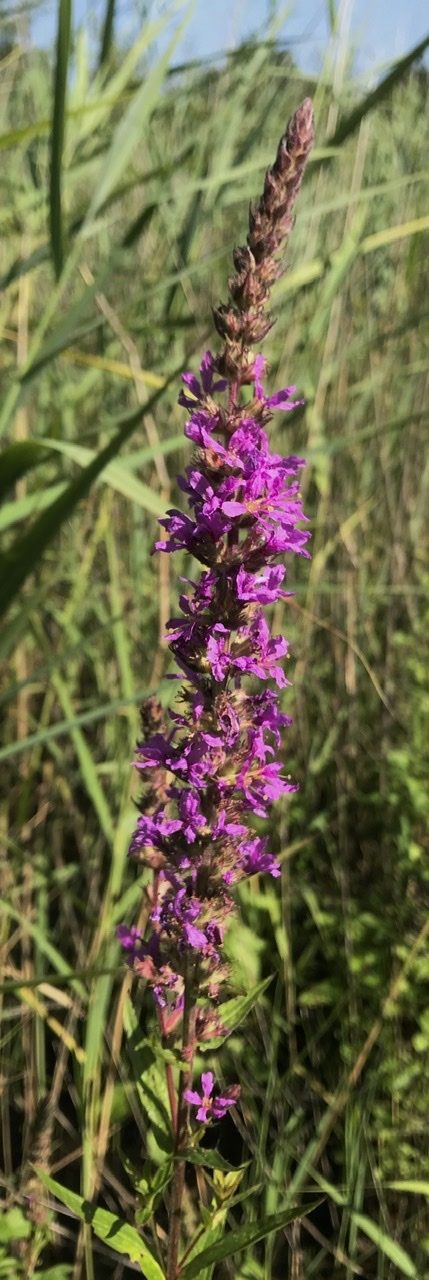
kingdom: Plantae
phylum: Tracheophyta
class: Magnoliopsida
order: Myrtales
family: Lythraceae
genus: Lythrum
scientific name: Lythrum salicaria
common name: Purple loosestrife
